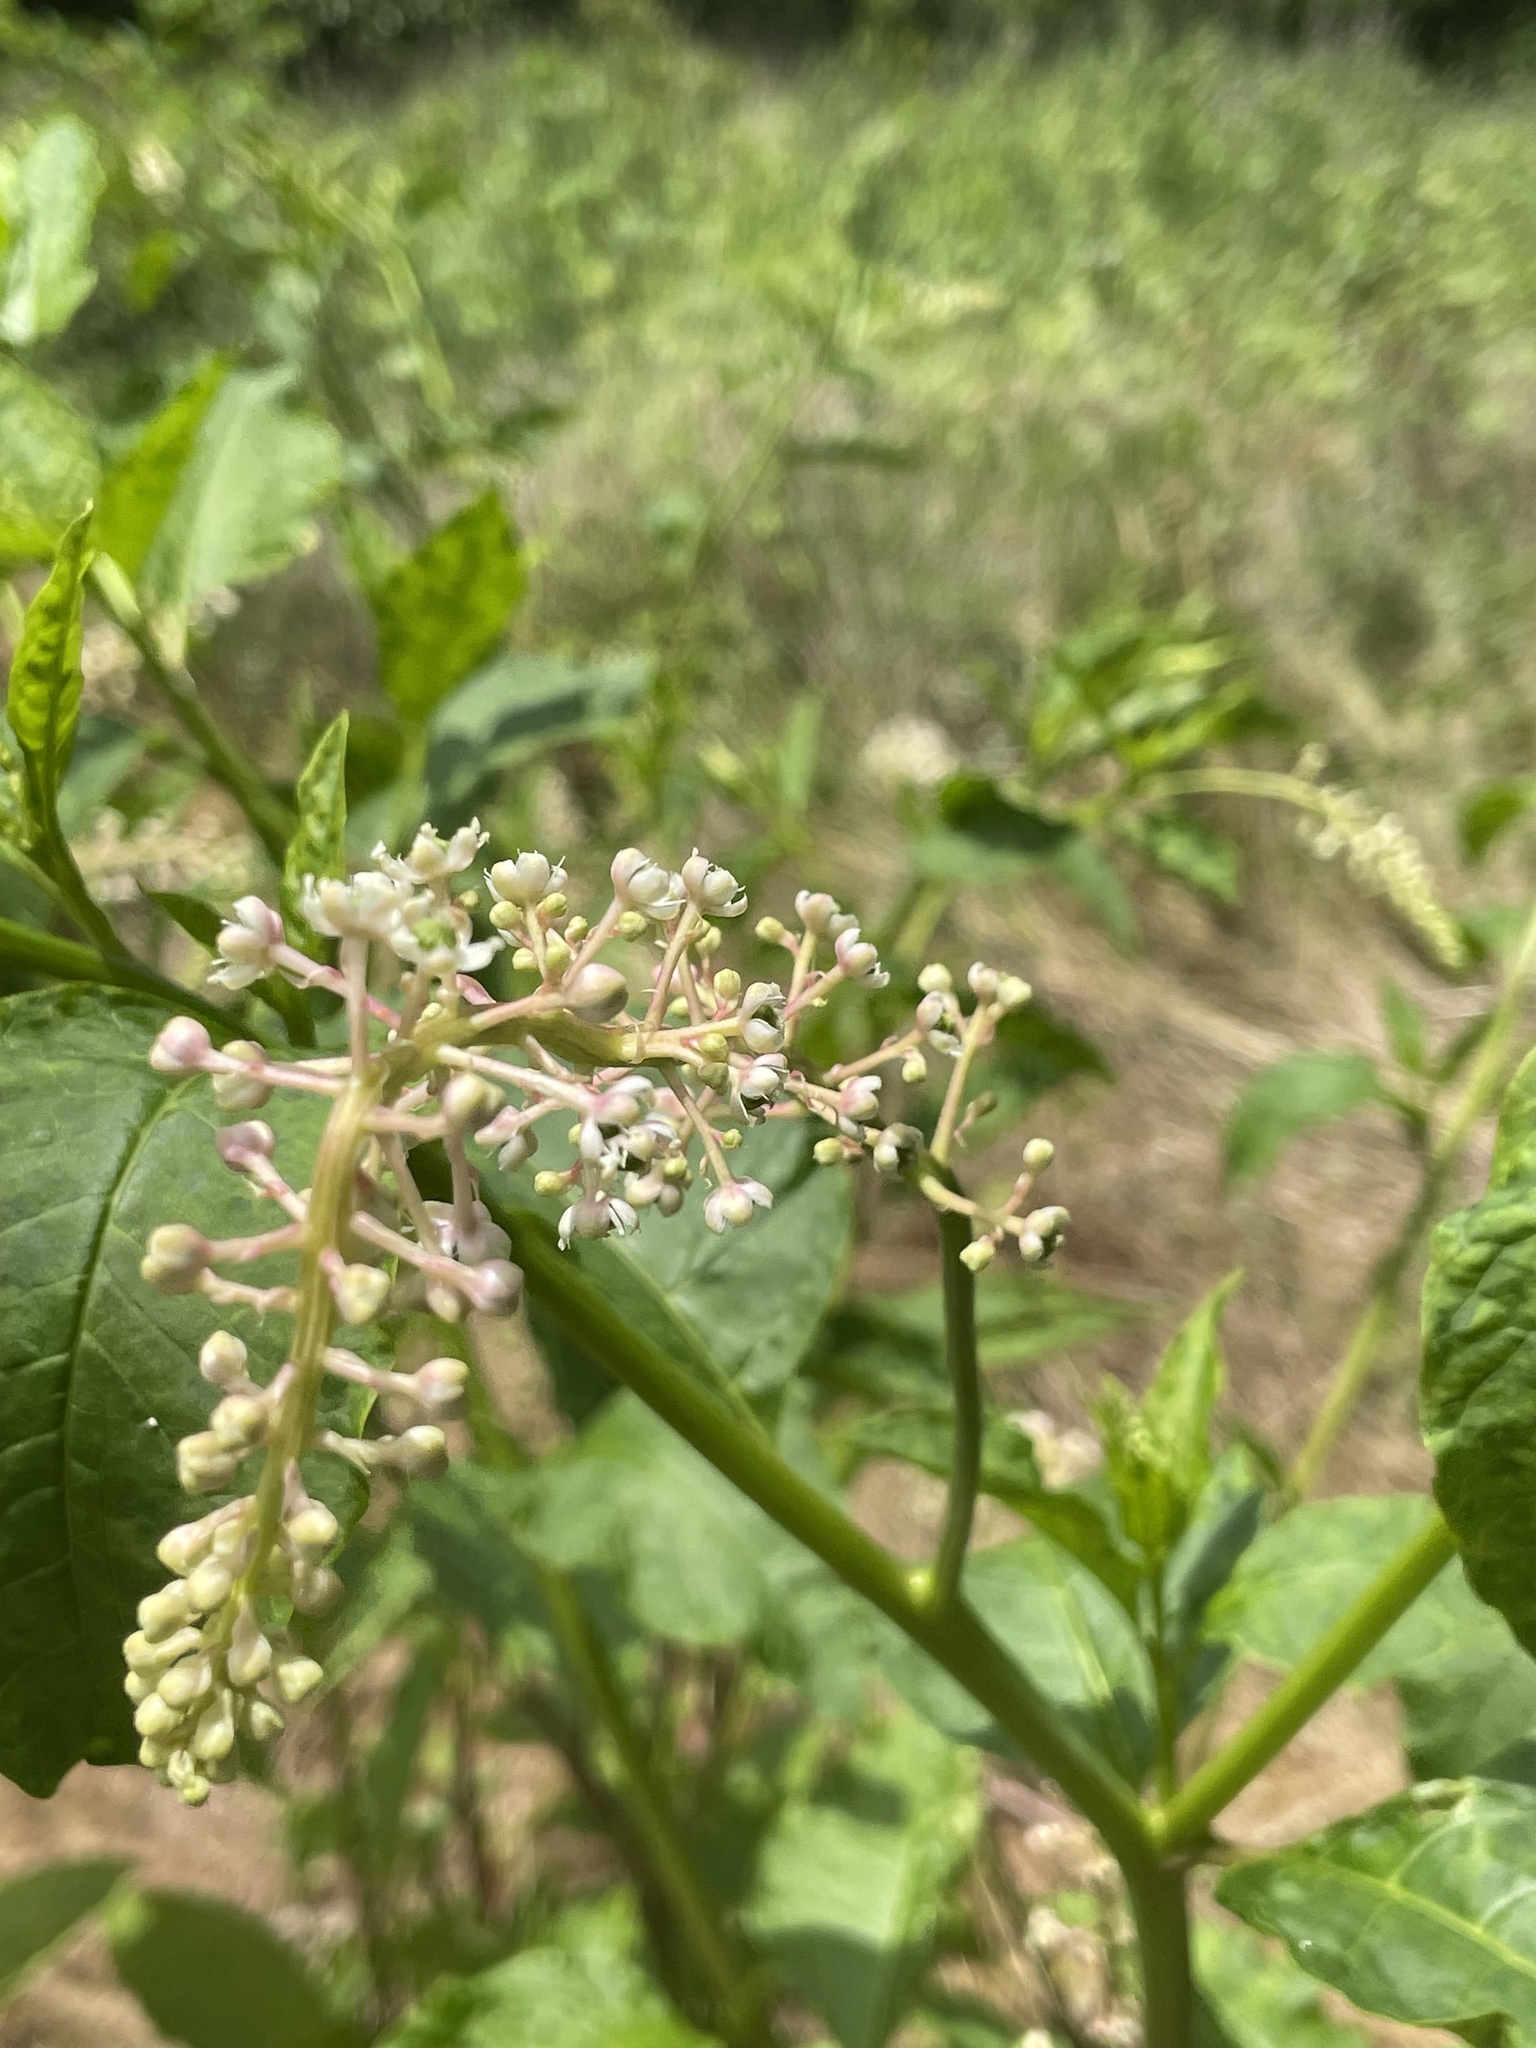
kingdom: Plantae
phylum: Tracheophyta
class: Magnoliopsida
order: Caryophyllales
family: Phytolaccaceae
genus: Phytolacca
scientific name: Phytolacca americana
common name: American pokeweed
